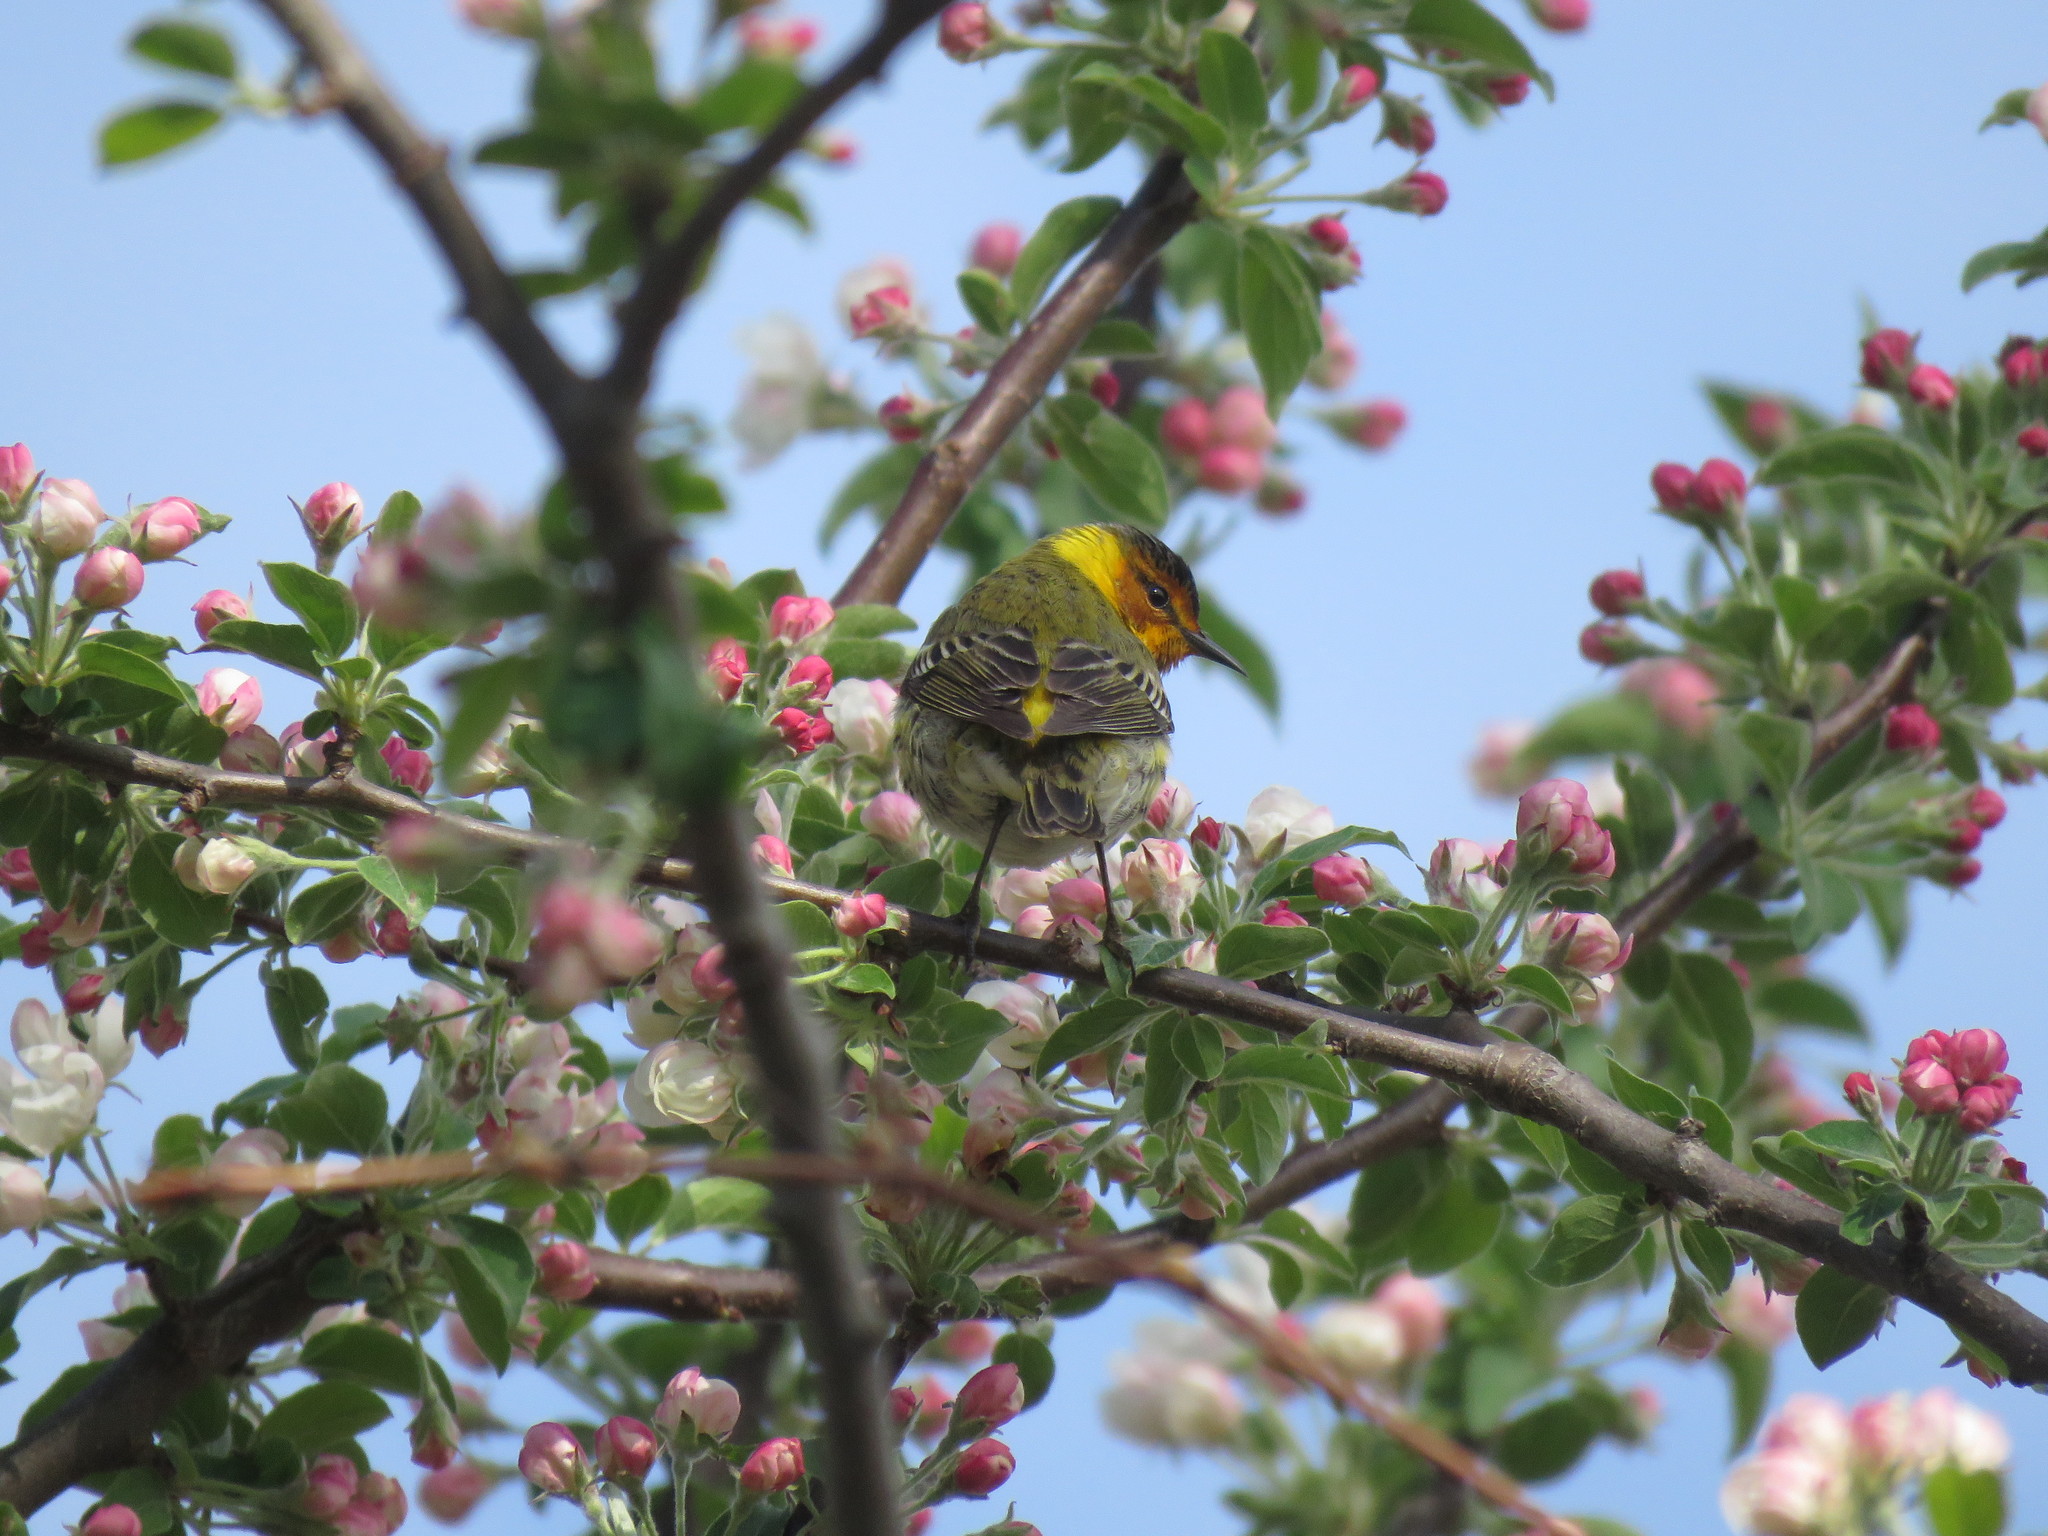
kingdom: Animalia
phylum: Chordata
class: Aves
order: Passeriformes
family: Parulidae
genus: Setophaga
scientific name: Setophaga tigrina
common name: Cape may warbler
